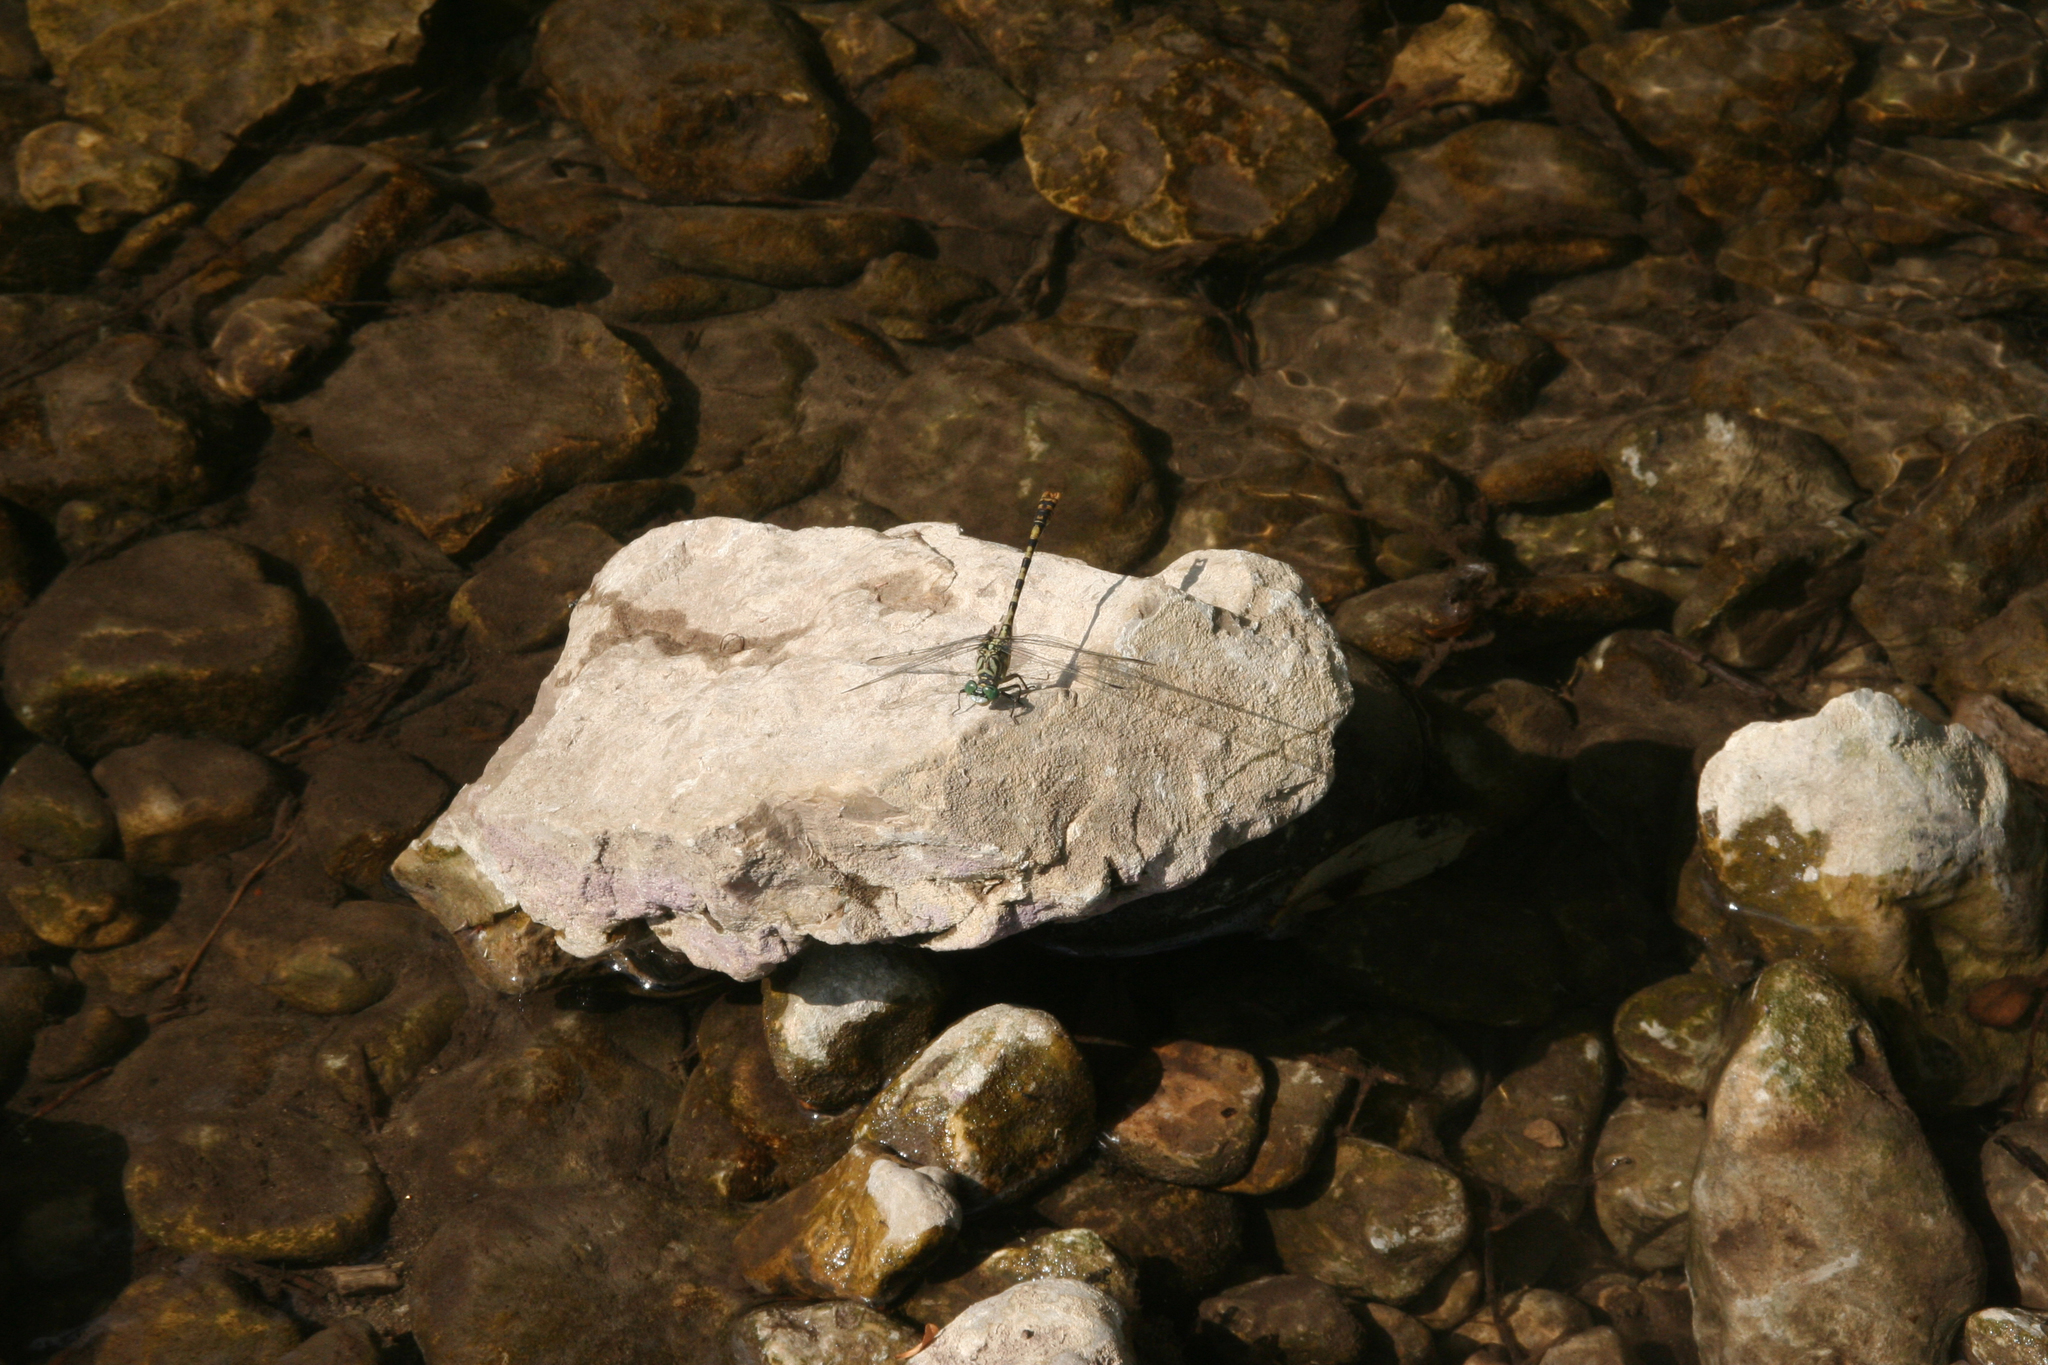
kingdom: Animalia
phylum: Arthropoda
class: Insecta
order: Odonata
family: Gomphidae
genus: Onychogomphus
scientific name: Onychogomphus forcipatus
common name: Small pincertail
